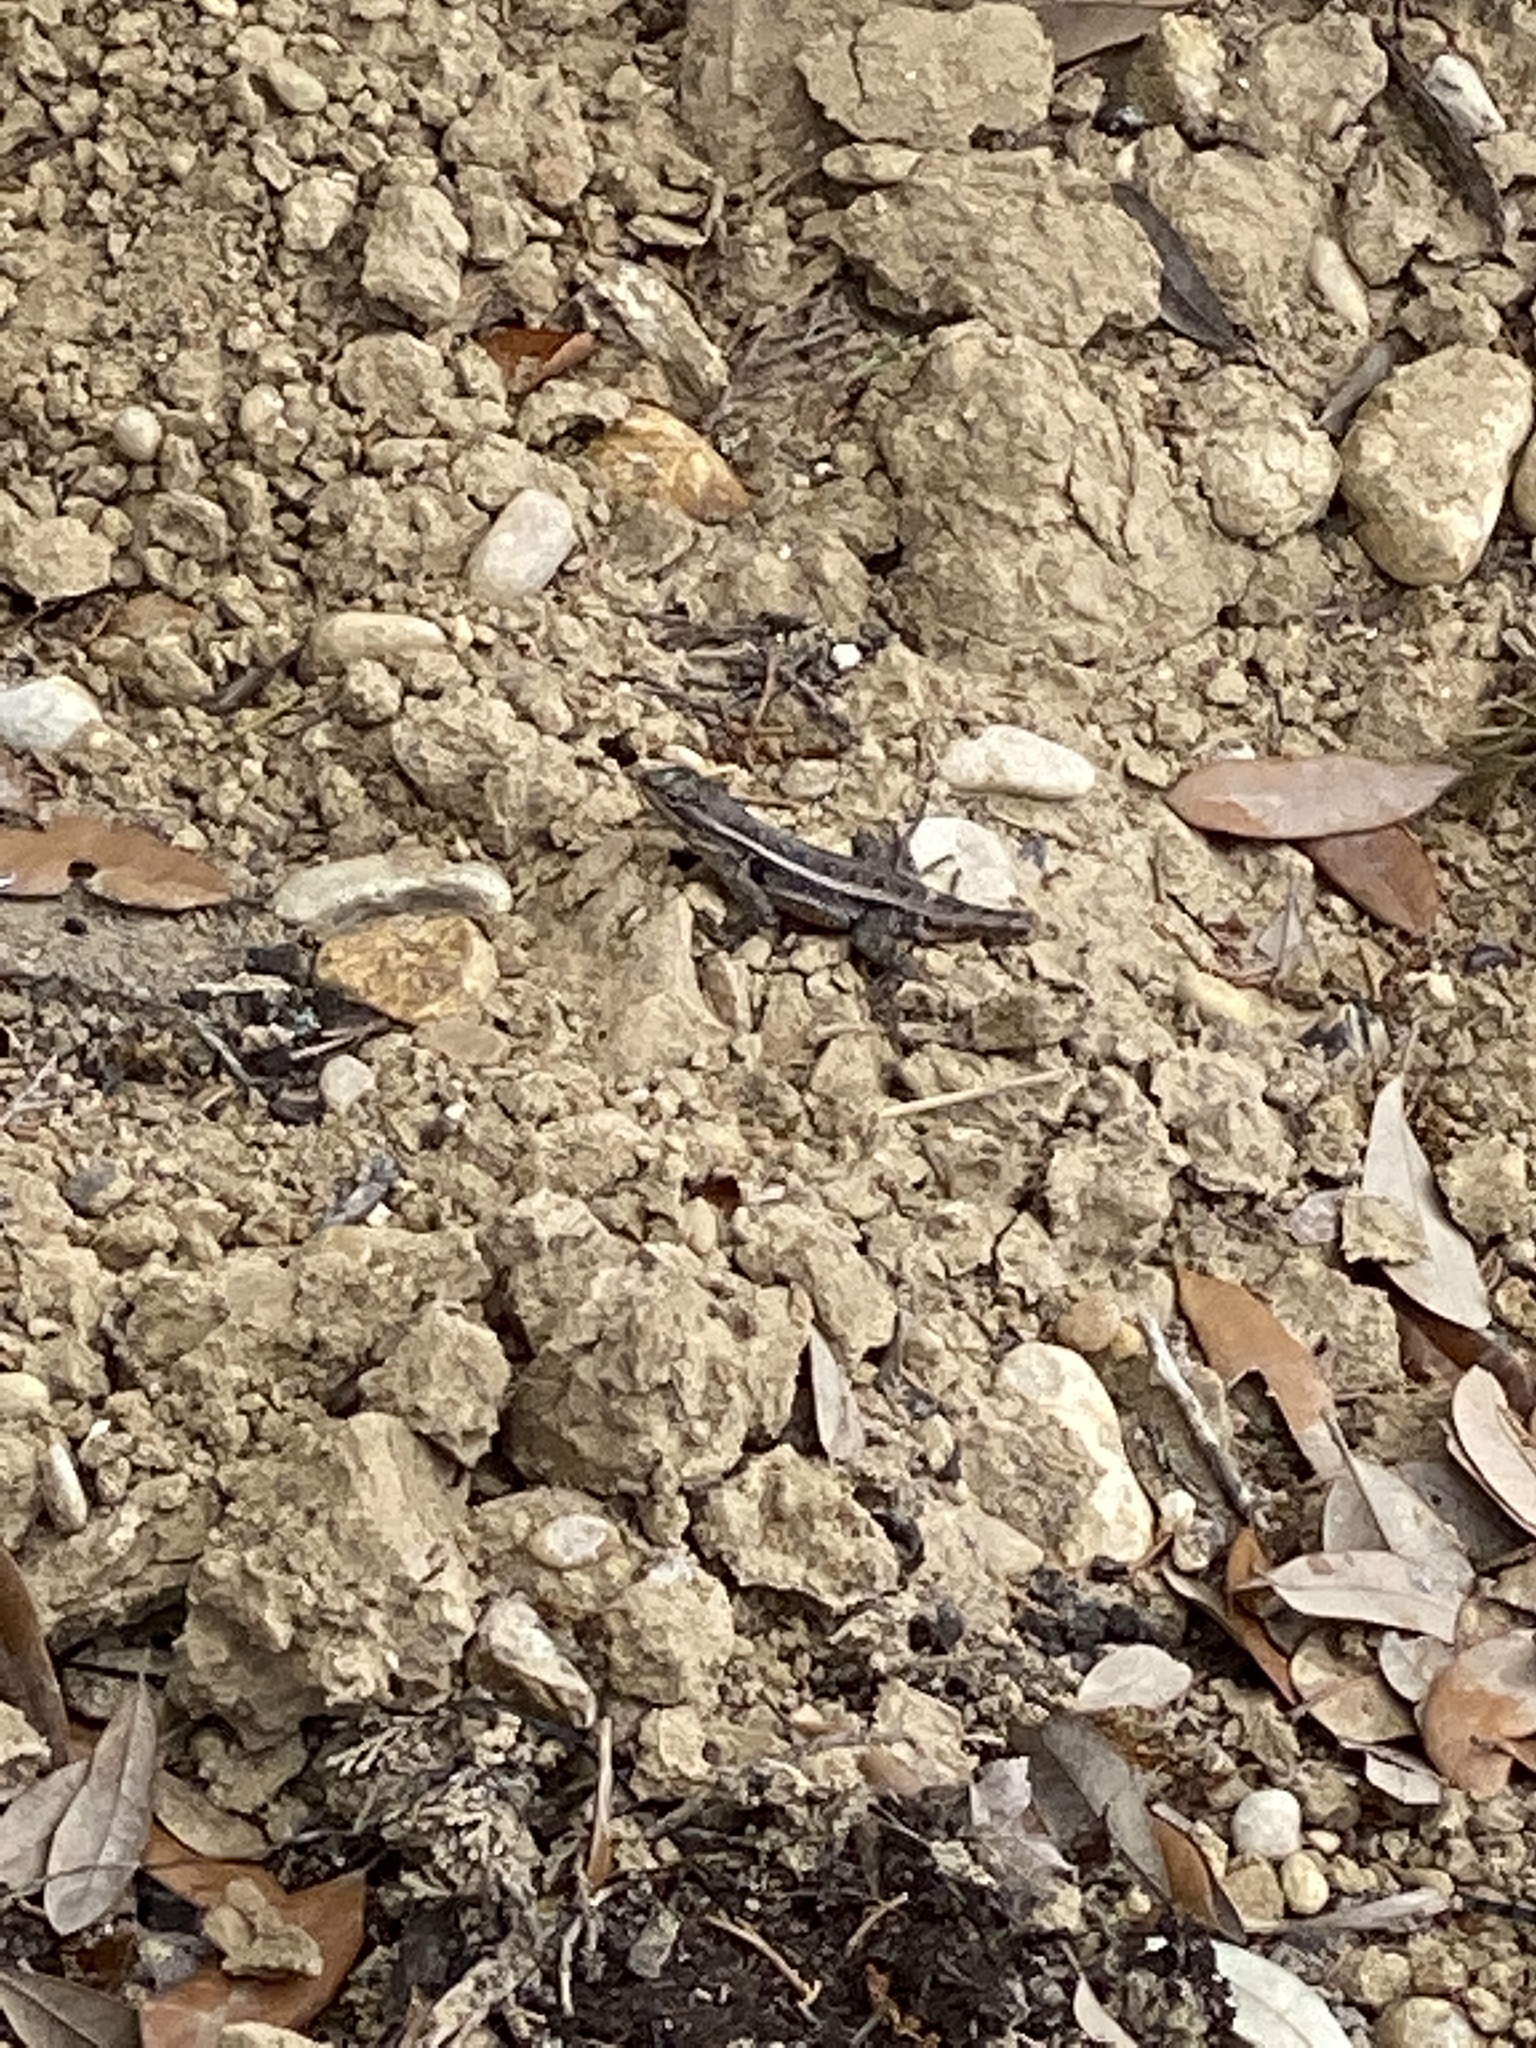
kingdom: Animalia
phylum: Chordata
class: Squamata
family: Phrynosomatidae
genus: Sceloporus
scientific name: Sceloporus variabilis
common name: Rosebelly lizard
